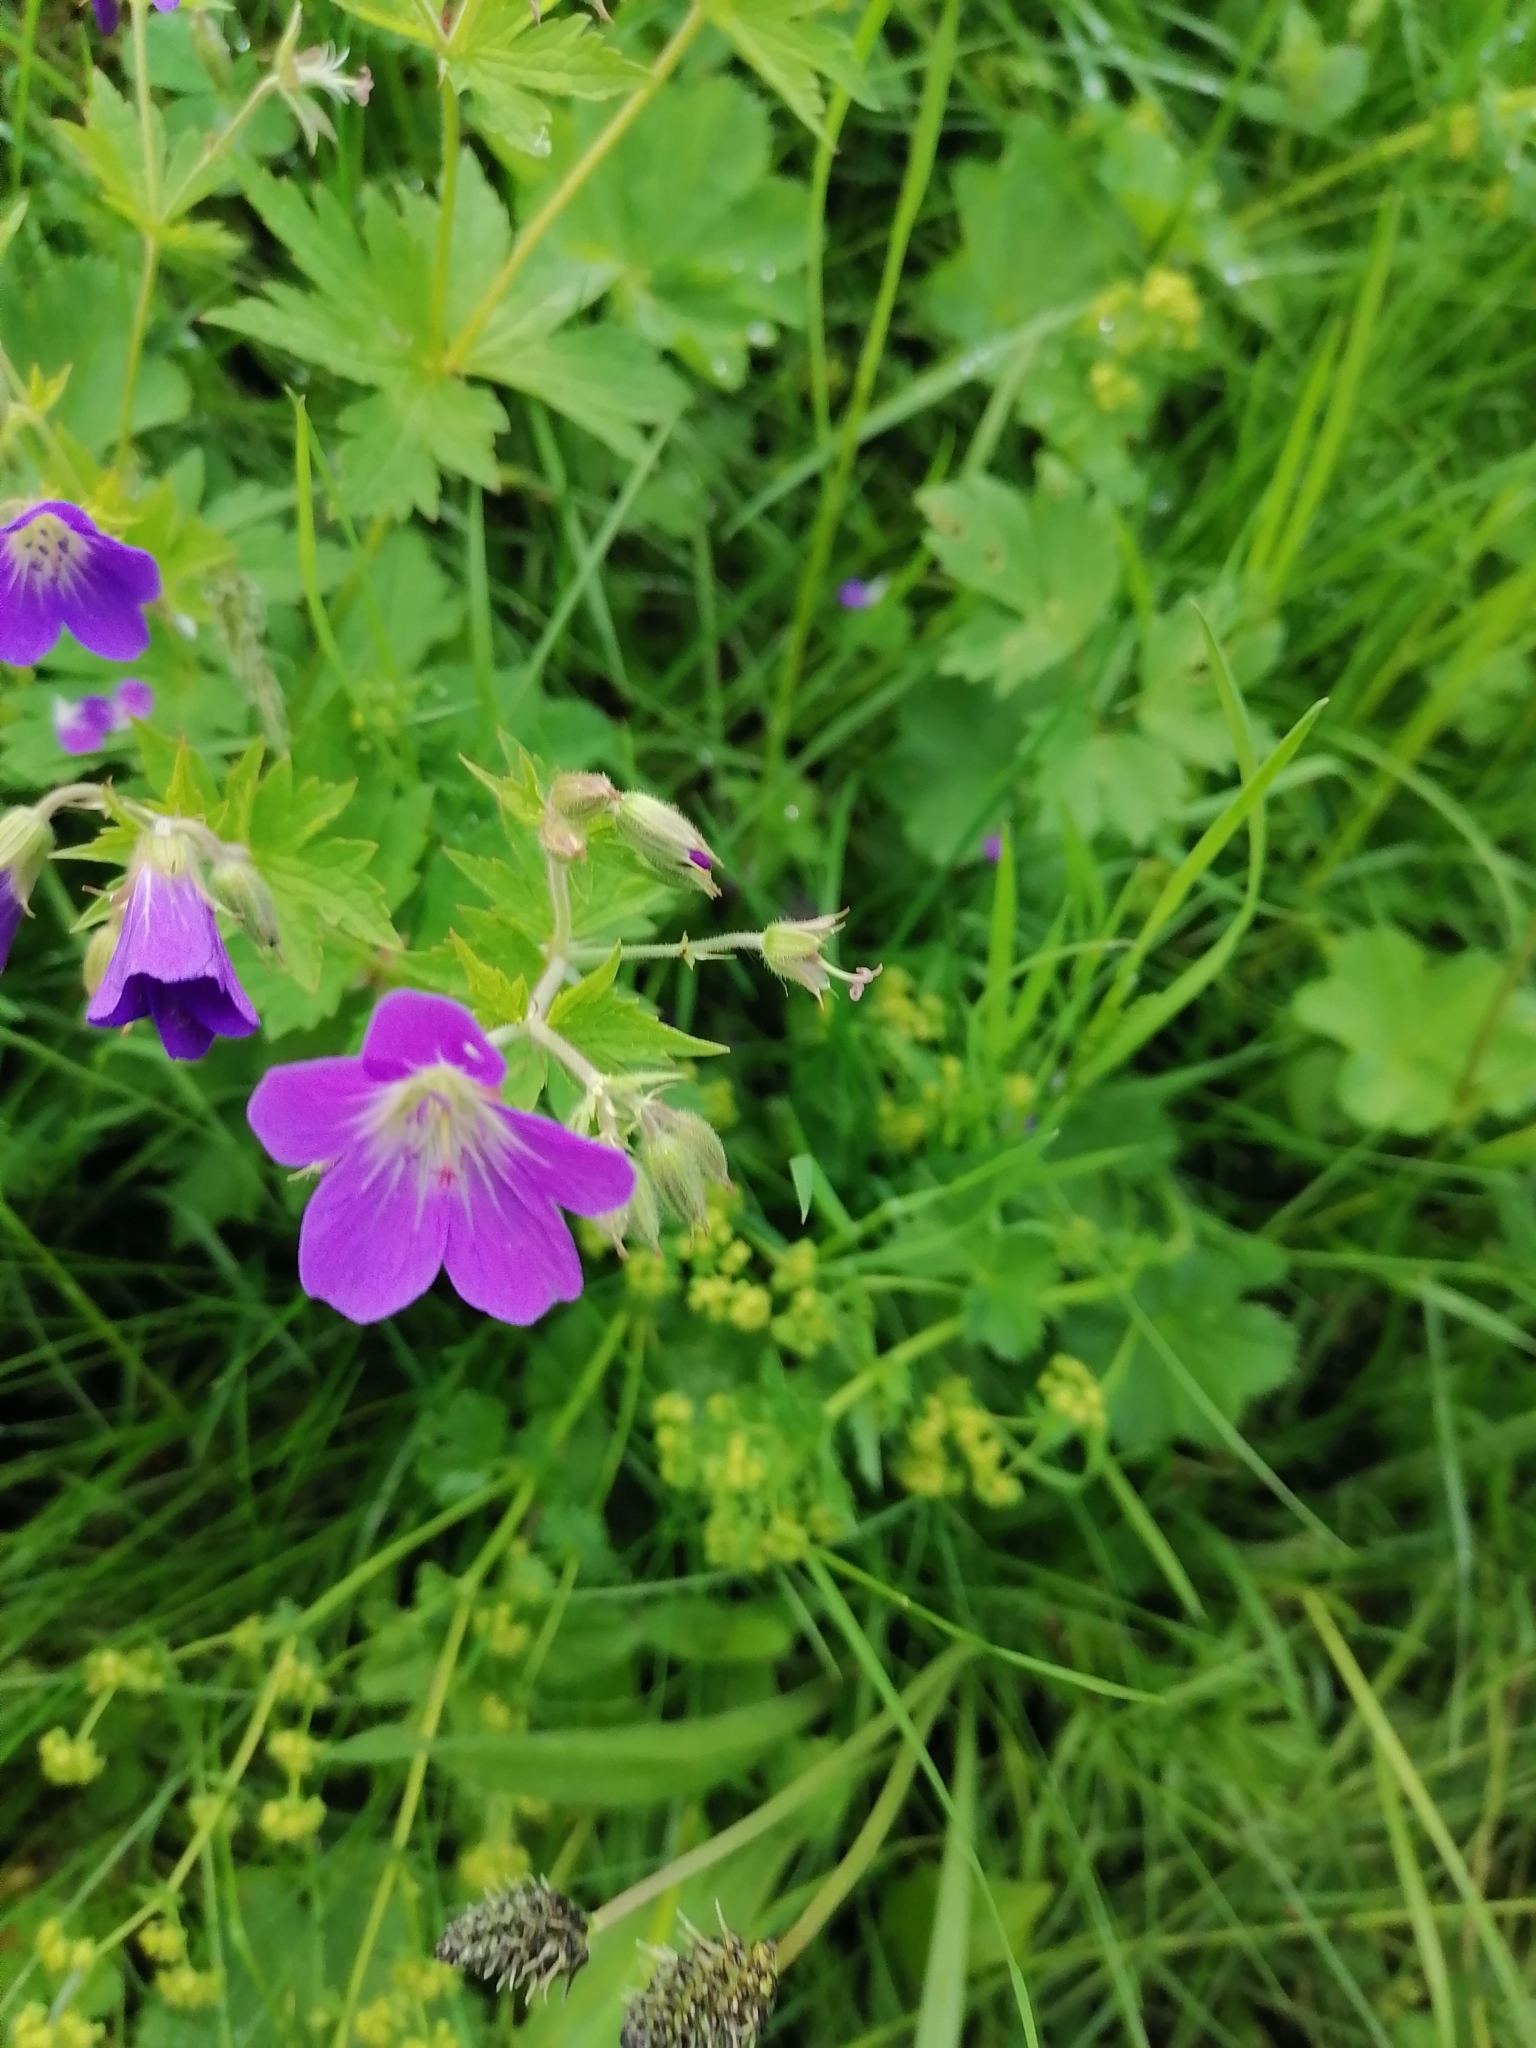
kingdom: Plantae
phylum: Tracheophyta
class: Magnoliopsida
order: Geraniales
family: Geraniaceae
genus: Geranium
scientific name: Geranium sylvaticum
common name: Wood crane's-bill
